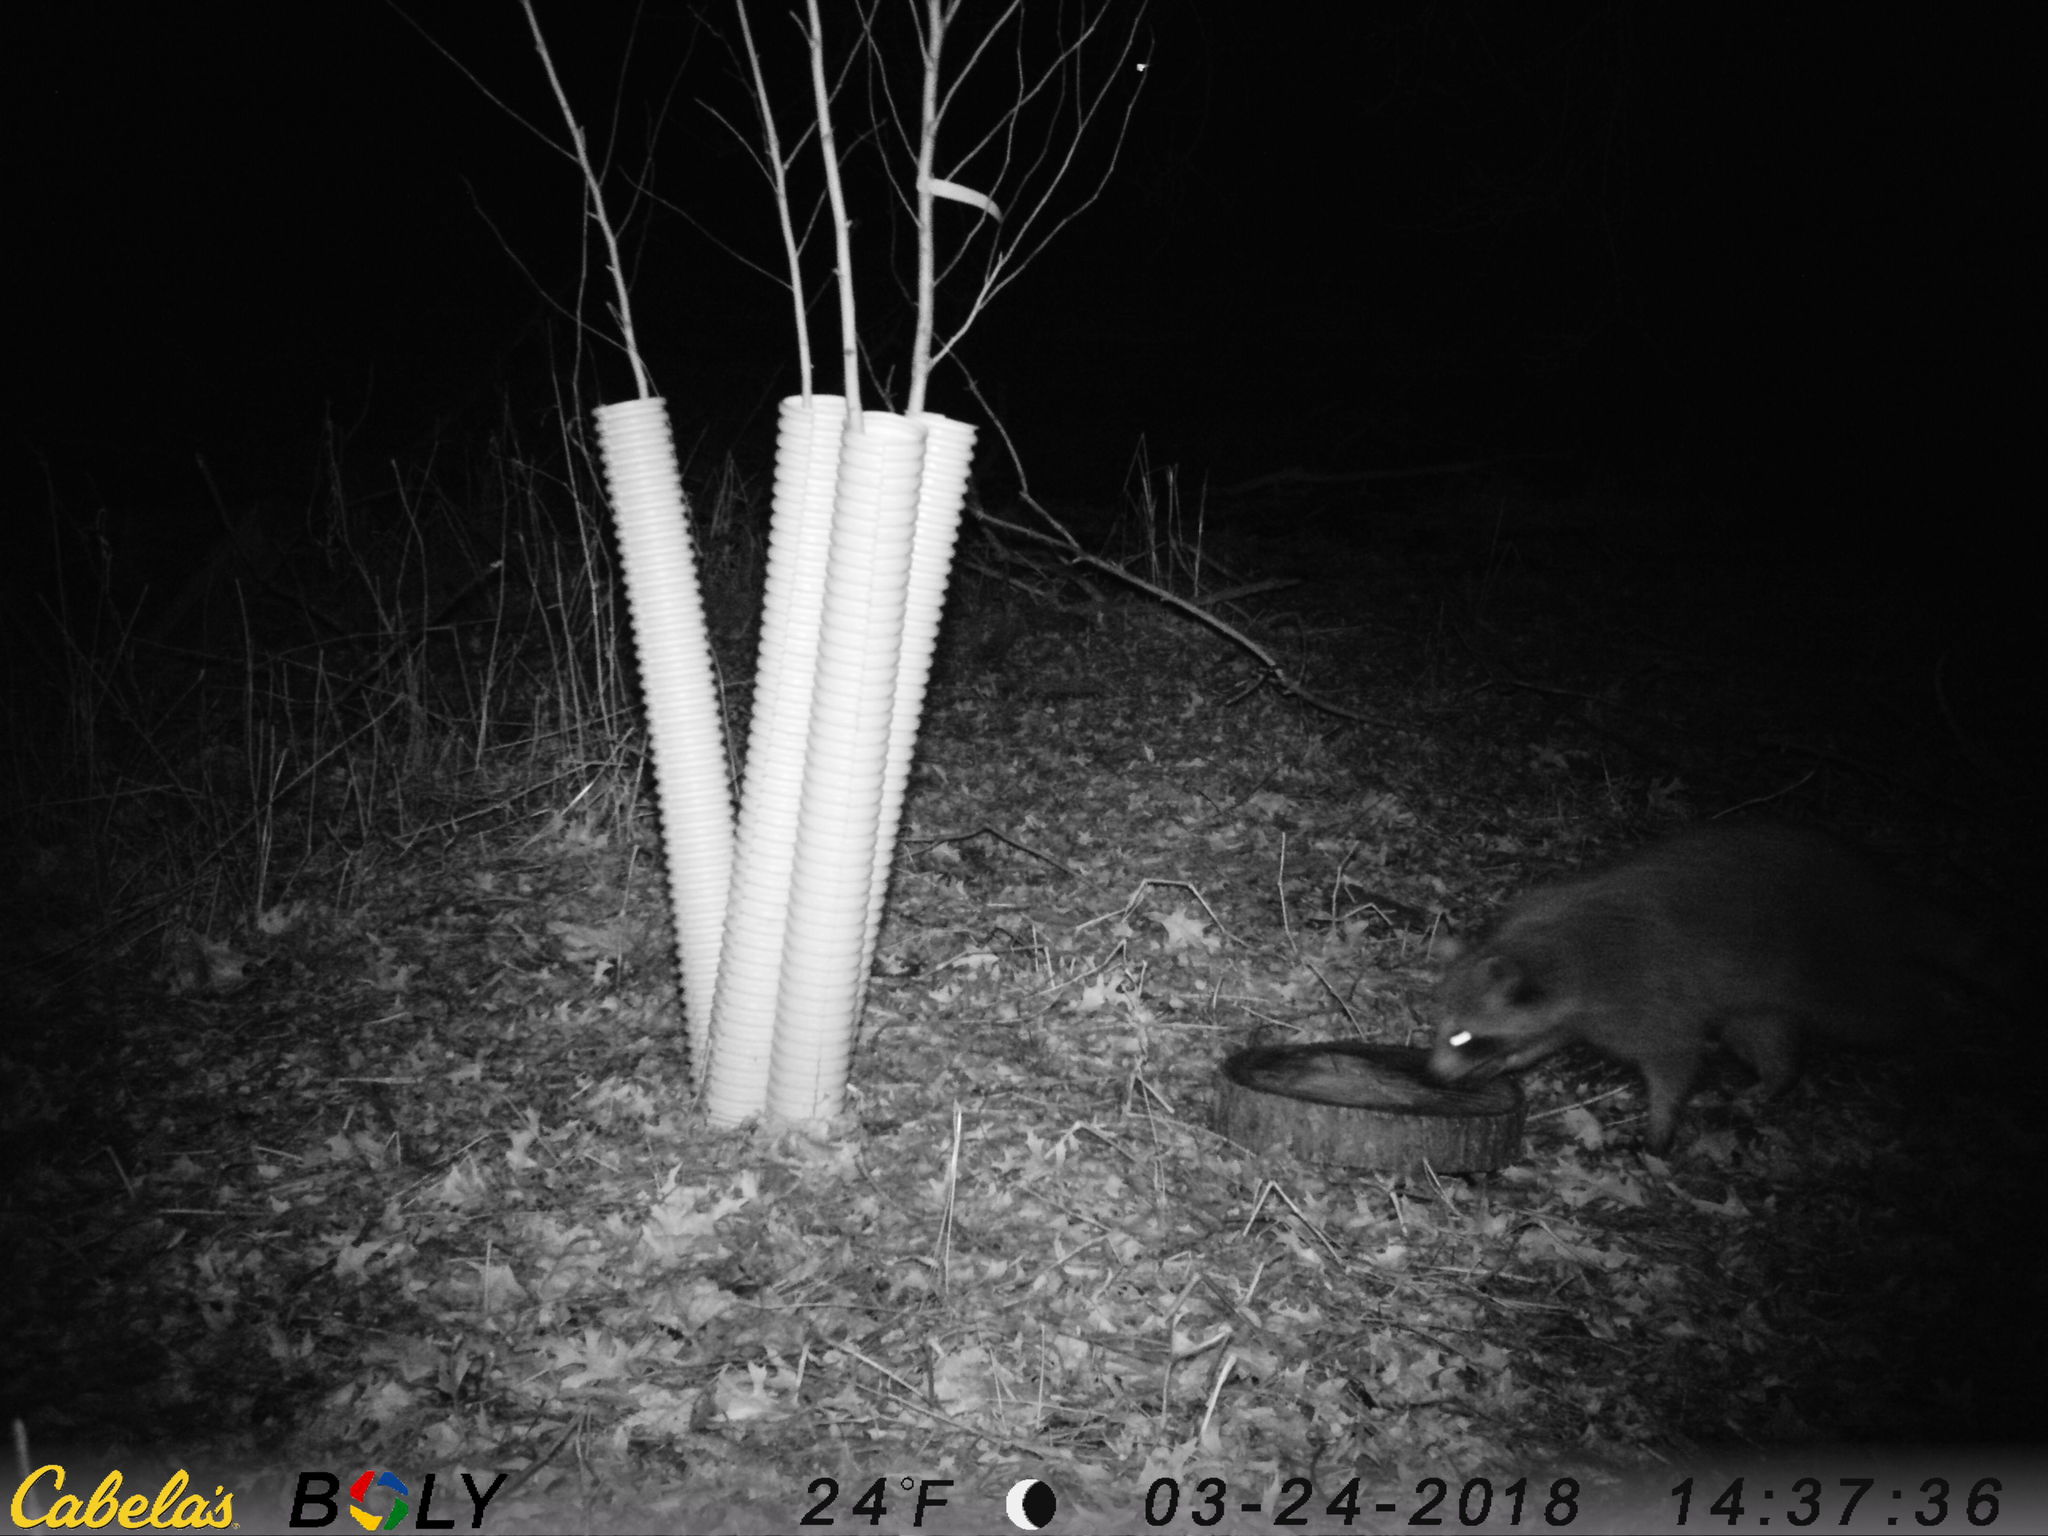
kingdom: Animalia
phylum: Chordata
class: Mammalia
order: Carnivora
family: Procyonidae
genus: Procyon
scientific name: Procyon lotor
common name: Raccoon
